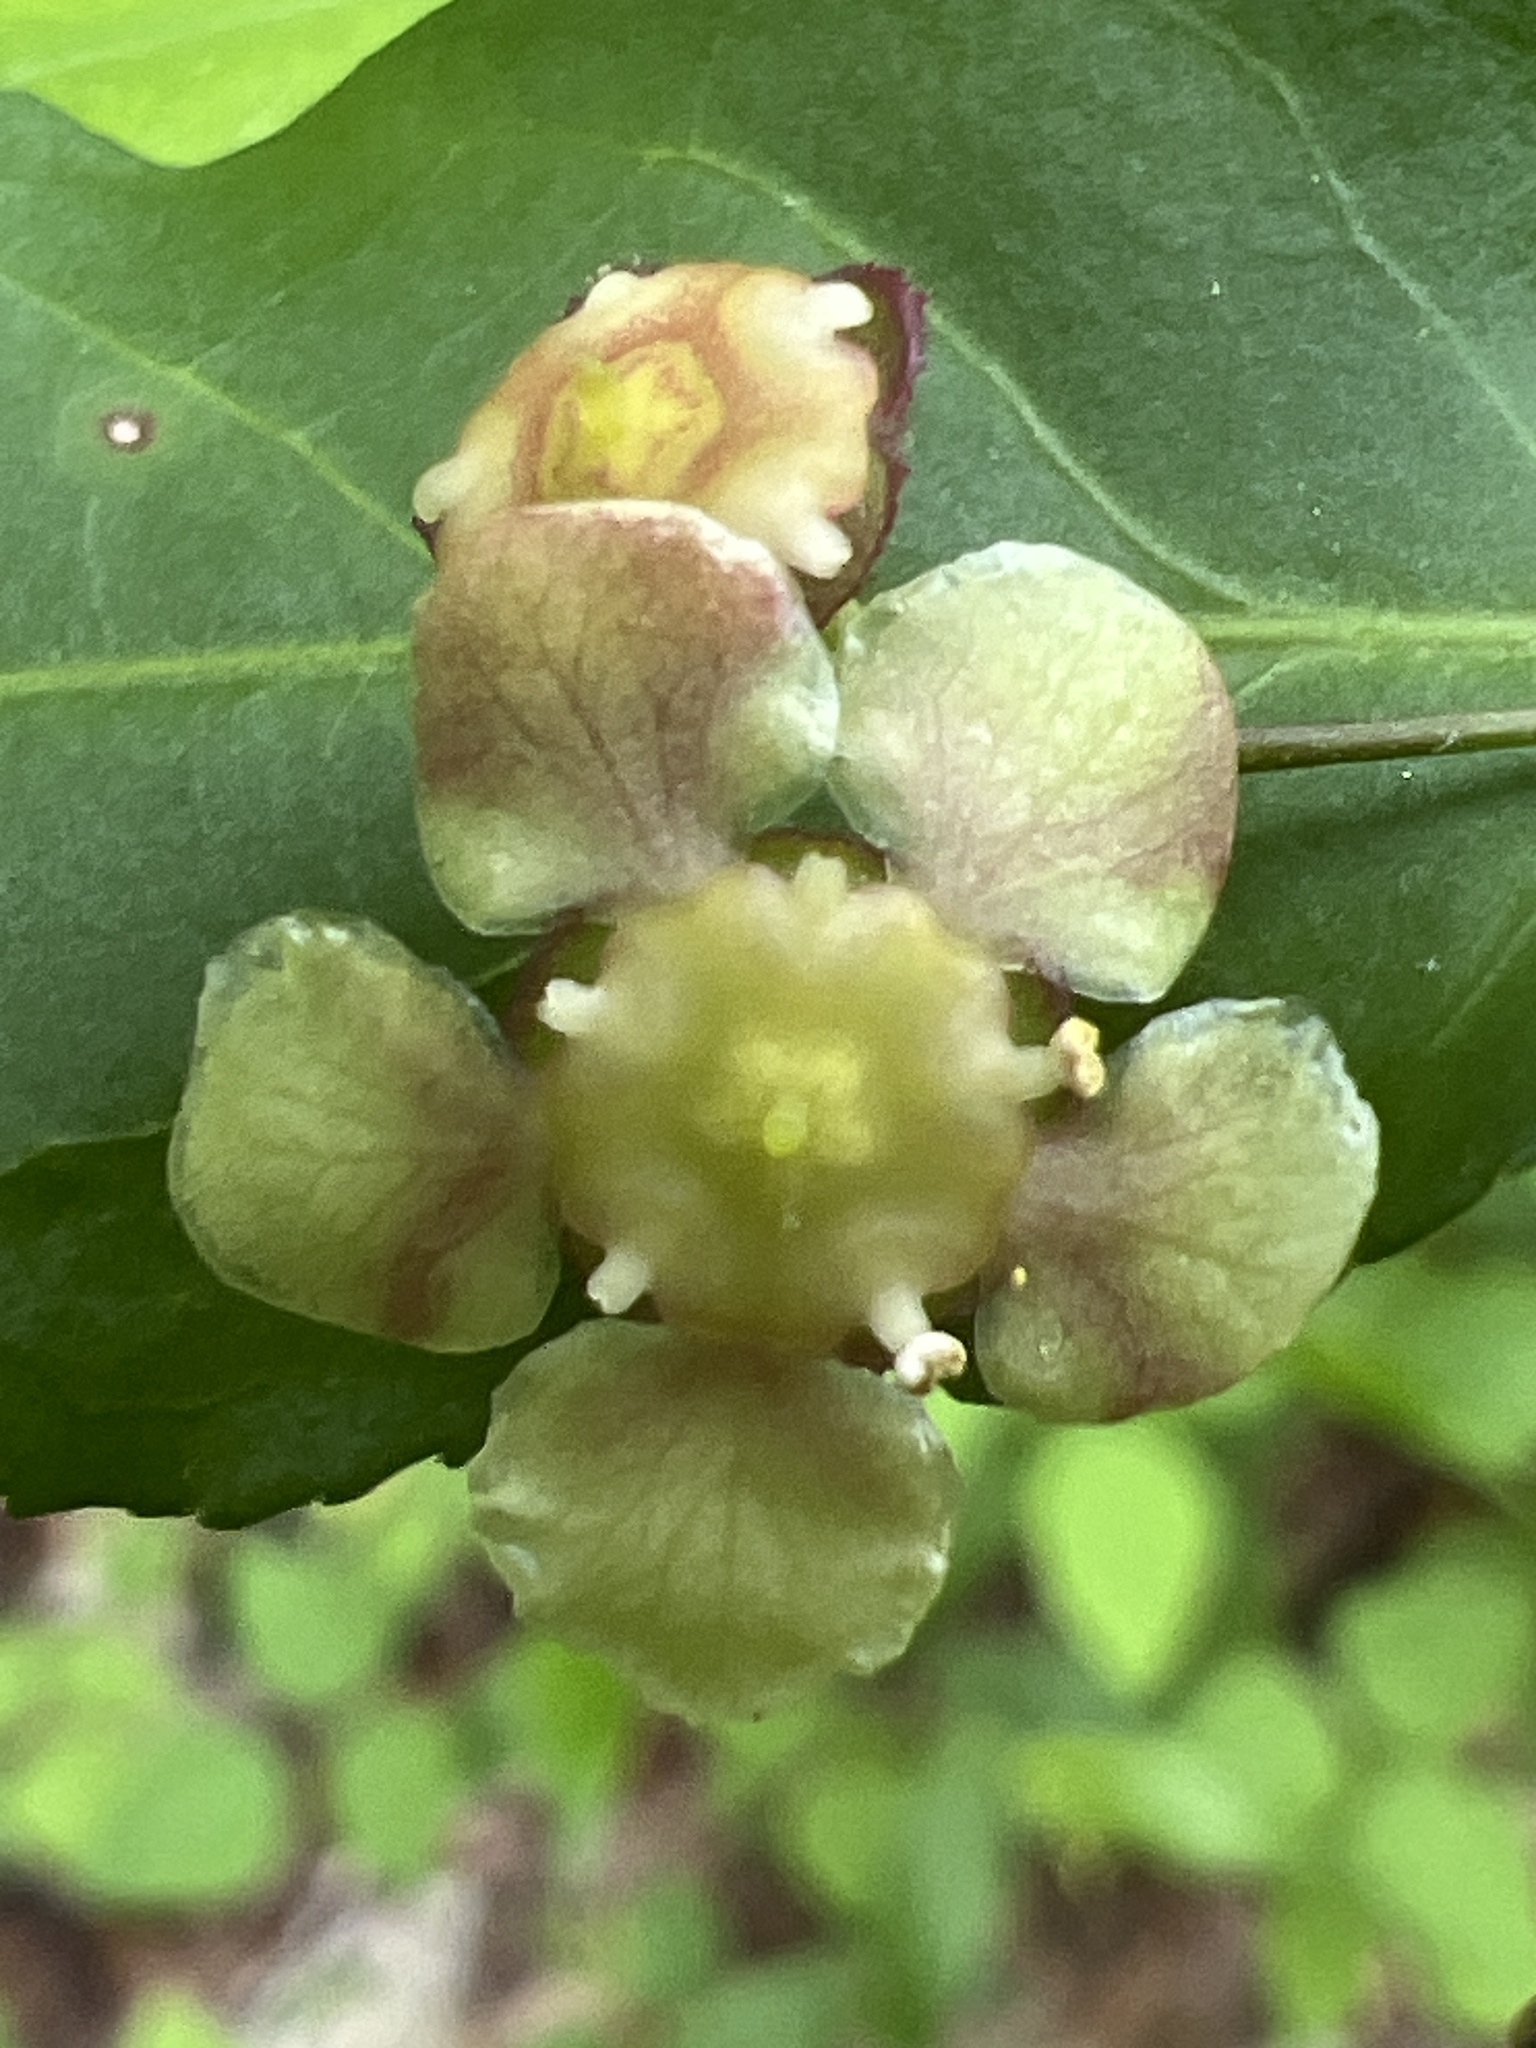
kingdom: Plantae
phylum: Tracheophyta
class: Magnoliopsida
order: Celastrales
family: Celastraceae
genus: Euonymus
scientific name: Euonymus americanus
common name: Bursting-heart
